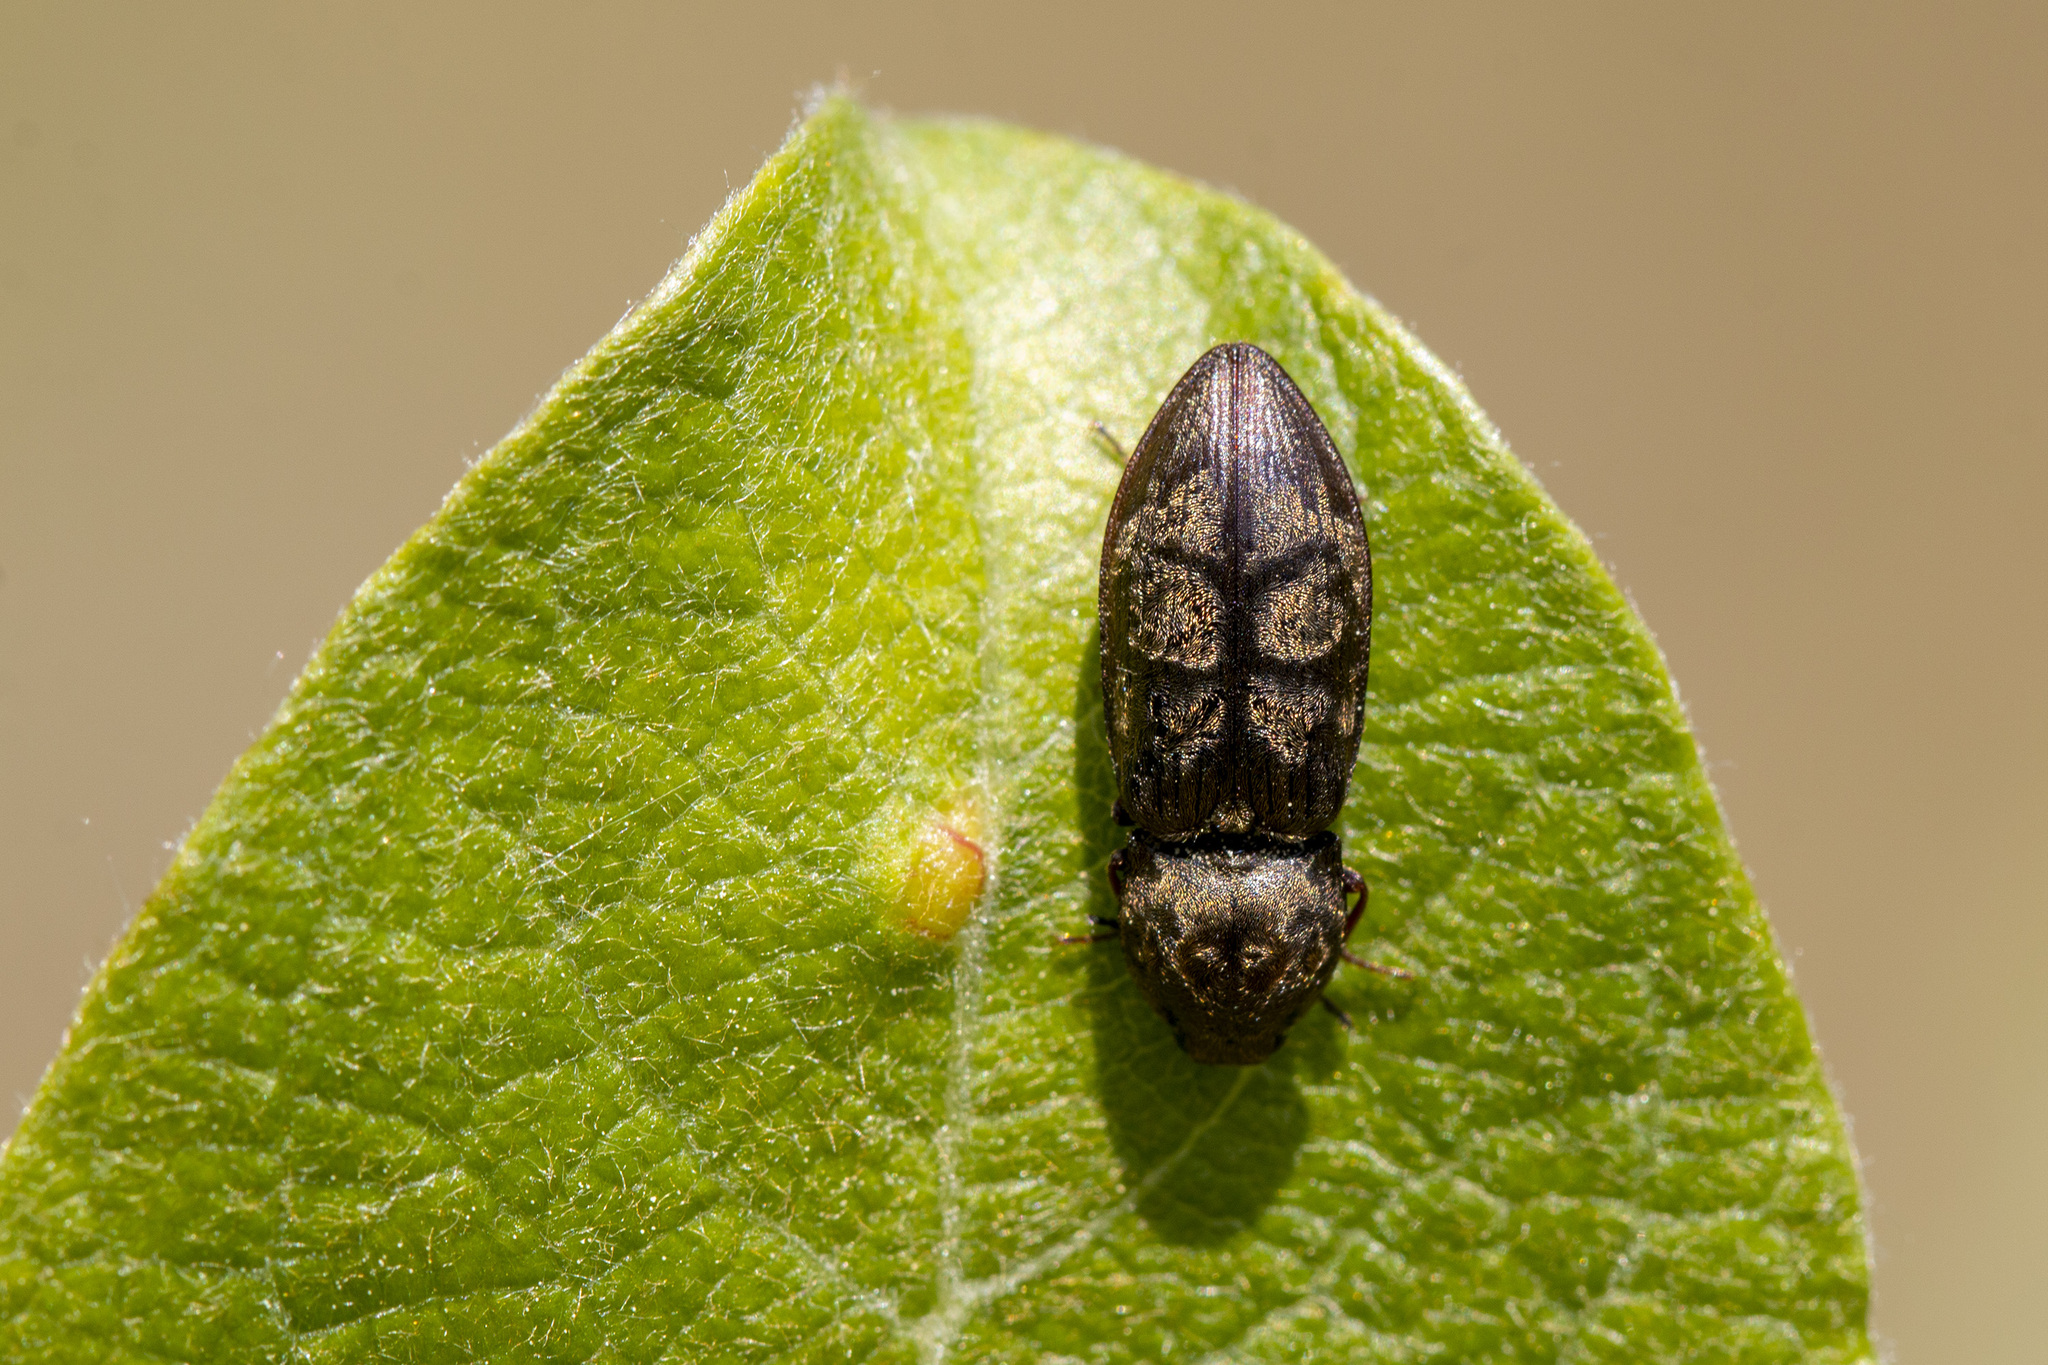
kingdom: Animalia
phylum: Arthropoda
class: Insecta
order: Coleoptera
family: Elateridae
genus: Prosternon
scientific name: Prosternon tessellatum
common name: Chequered click beetle
